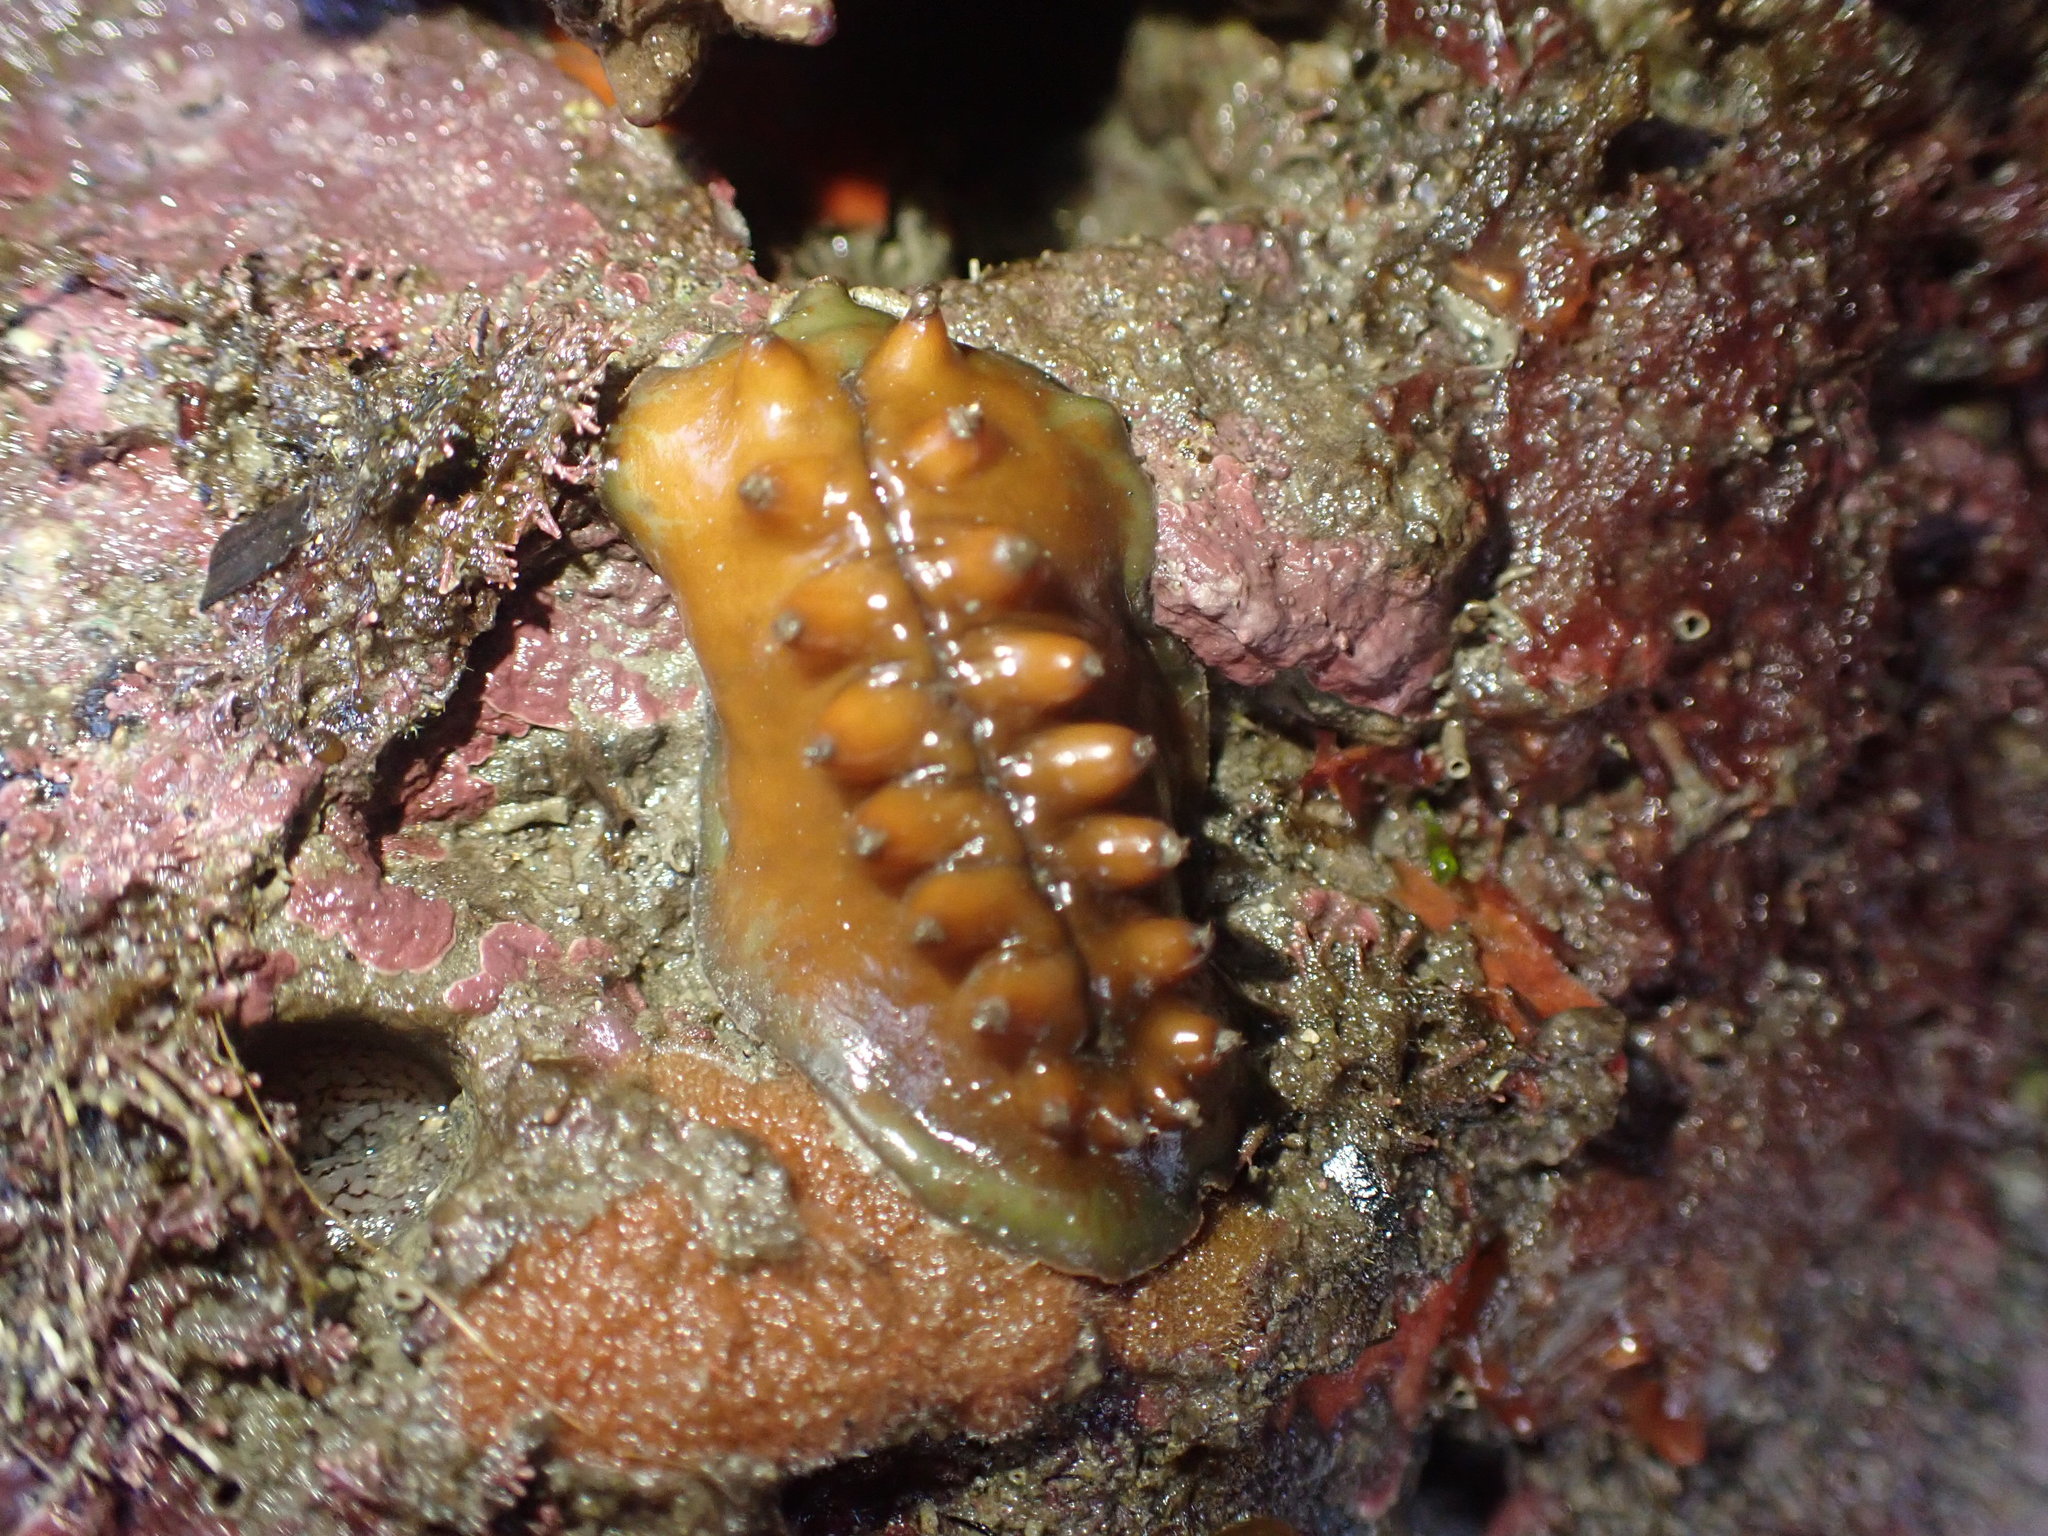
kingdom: Animalia
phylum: Mollusca
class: Polyplacophora
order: Chitonida
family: Acanthochitonidae
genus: Cryptoconchus
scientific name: Cryptoconchus porosus
